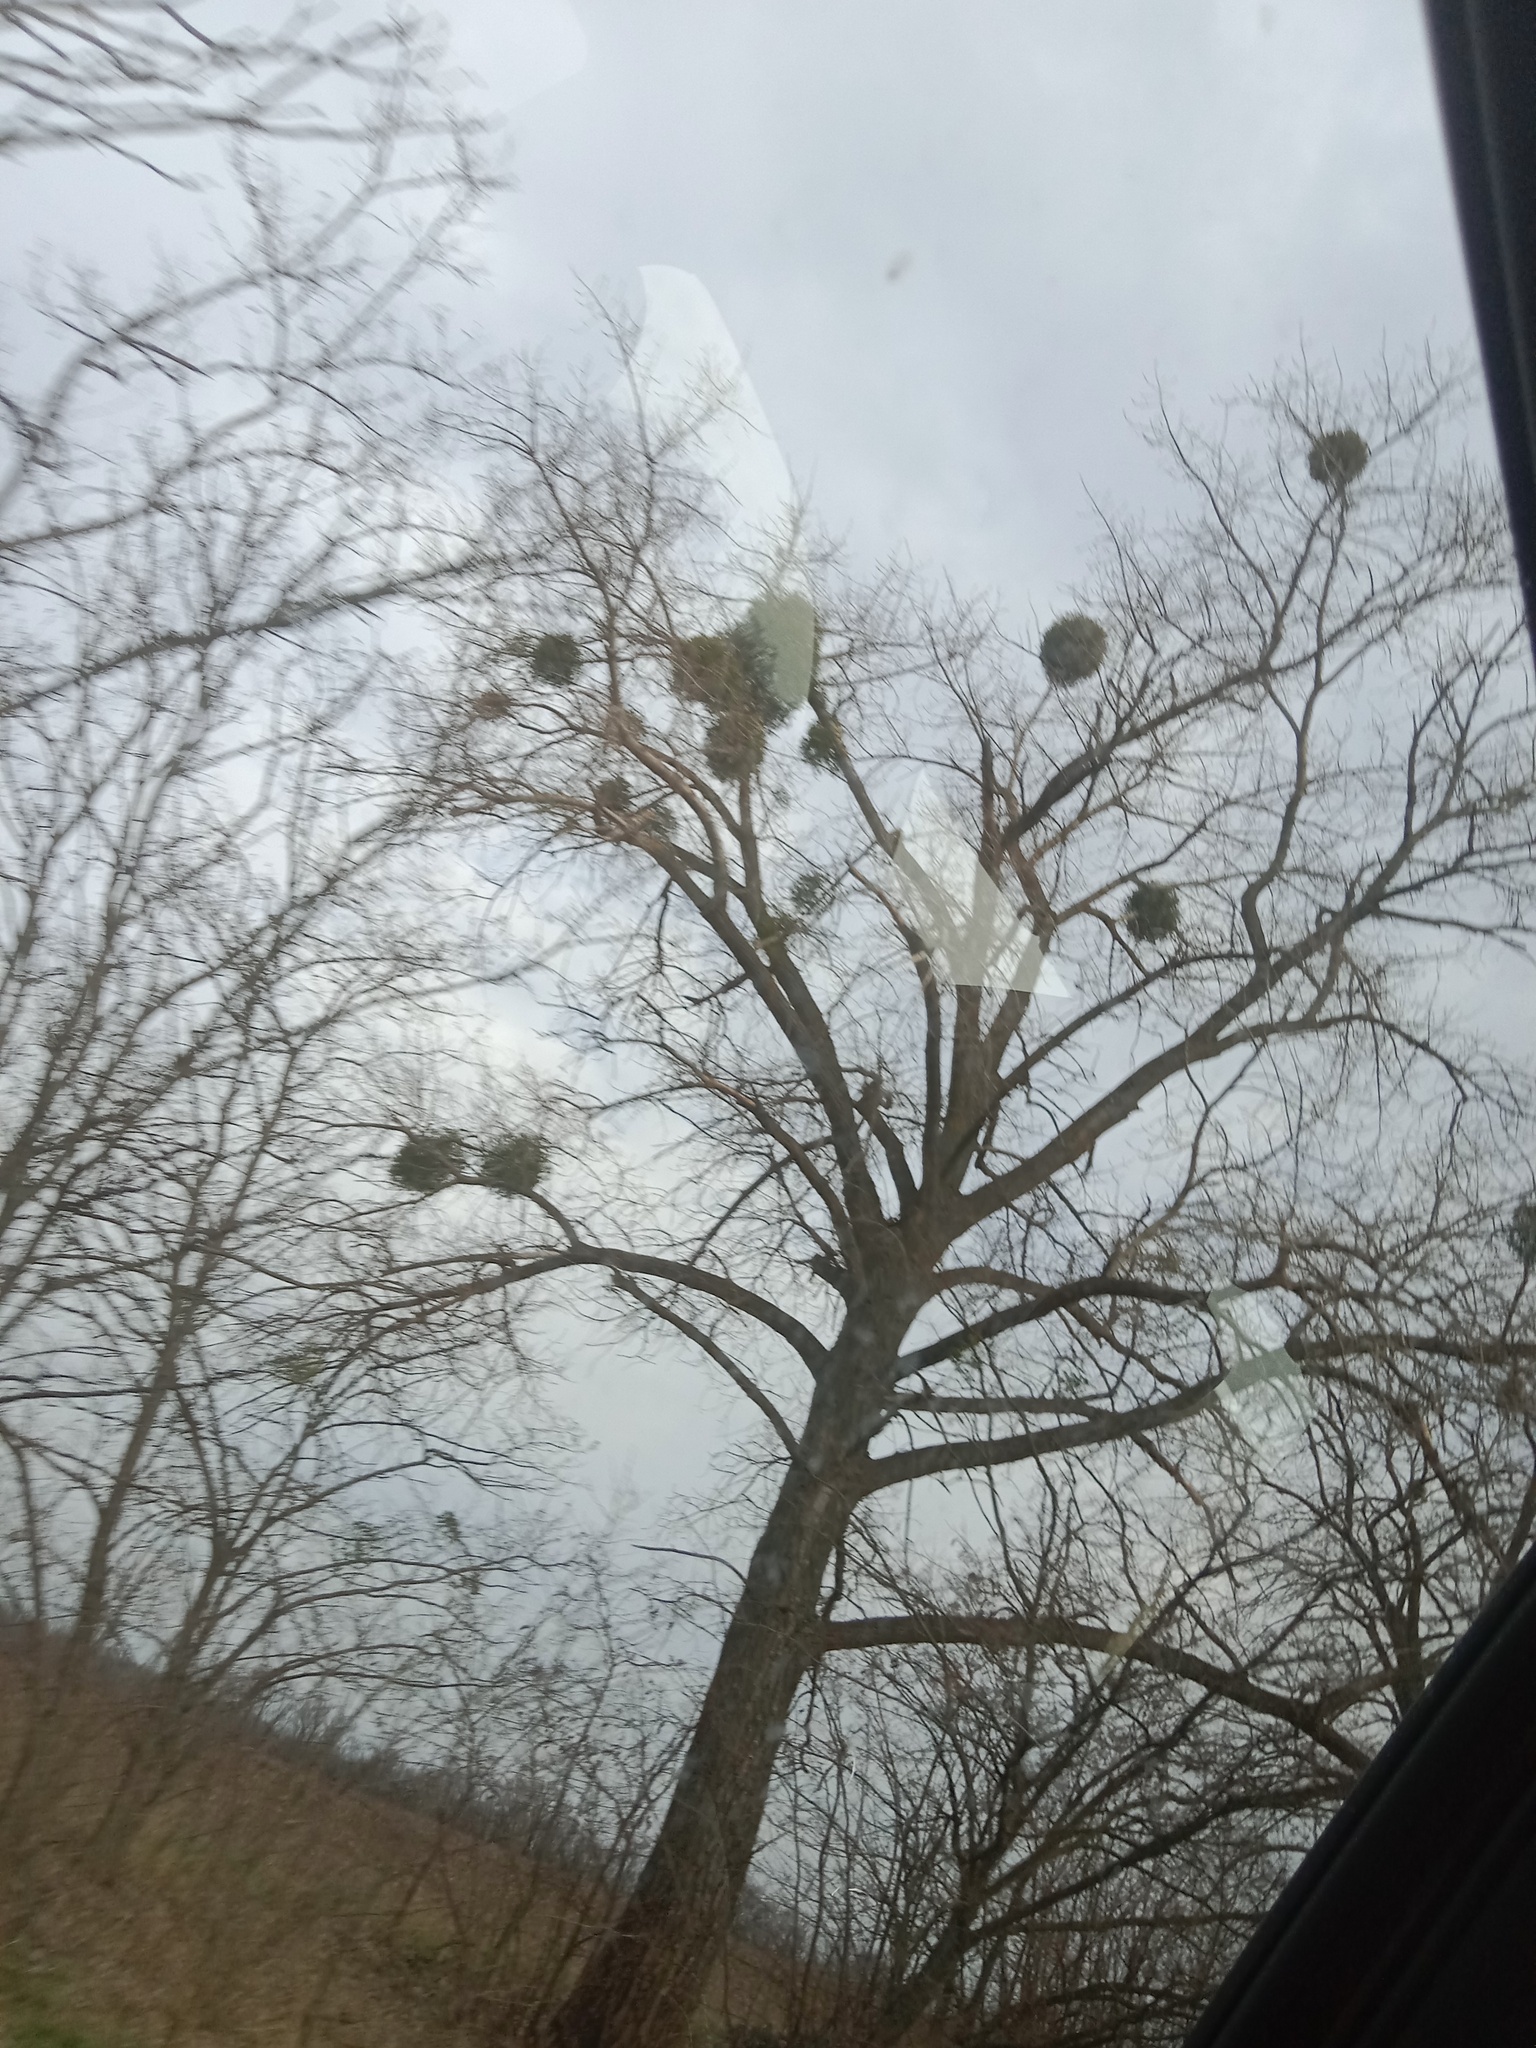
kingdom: Plantae
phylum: Tracheophyta
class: Magnoliopsida
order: Santalales
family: Viscaceae
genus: Viscum
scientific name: Viscum album
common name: Mistletoe
